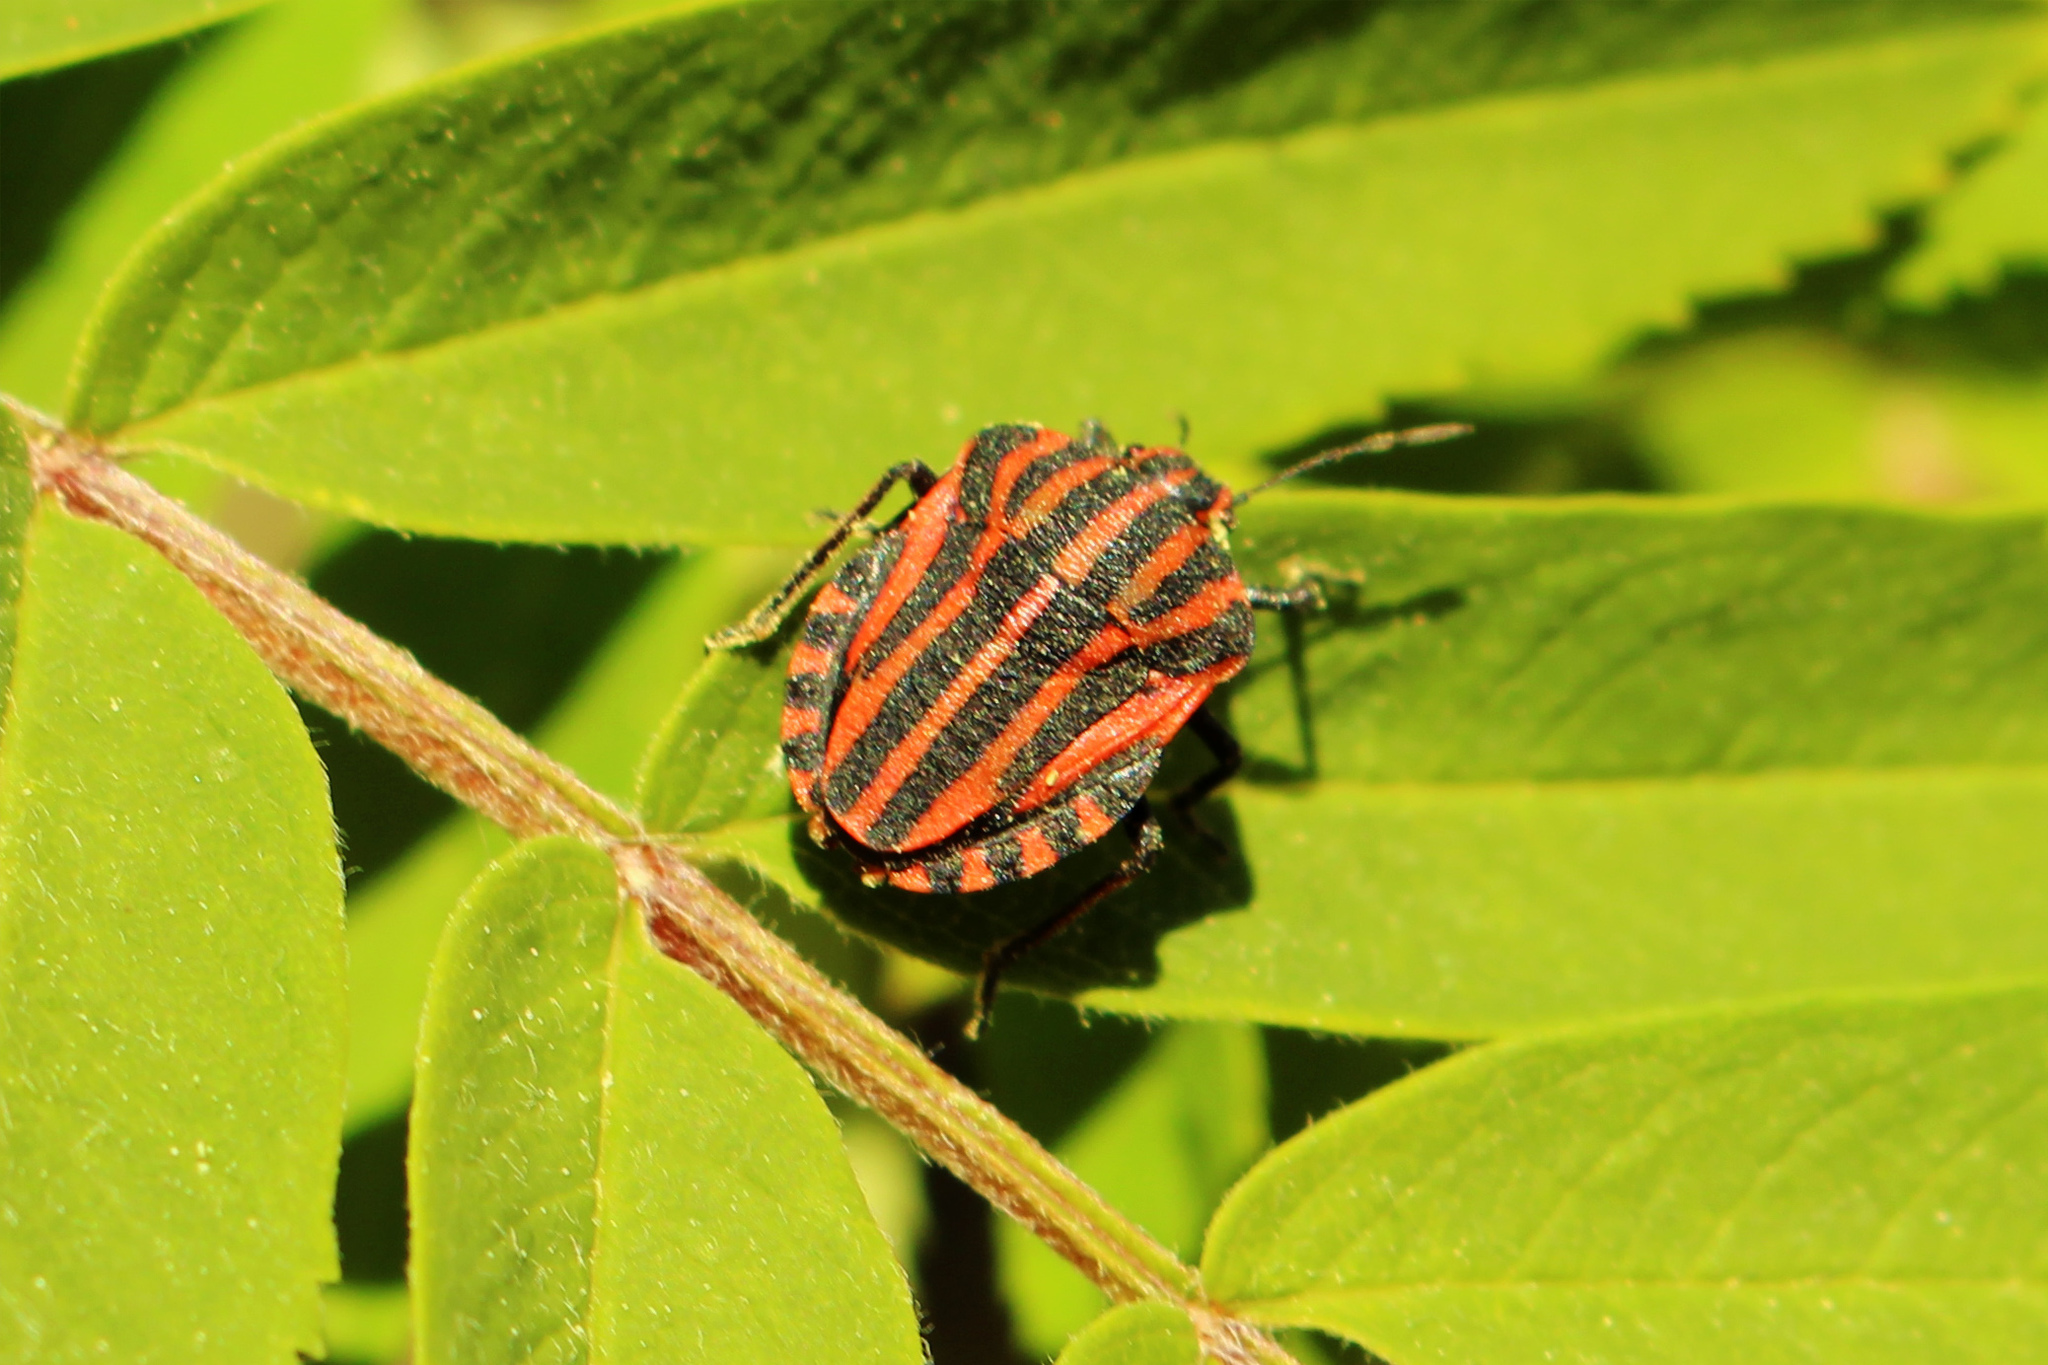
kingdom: Animalia
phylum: Arthropoda
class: Insecta
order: Hemiptera
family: Pentatomidae
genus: Graphosoma
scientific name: Graphosoma italicum
